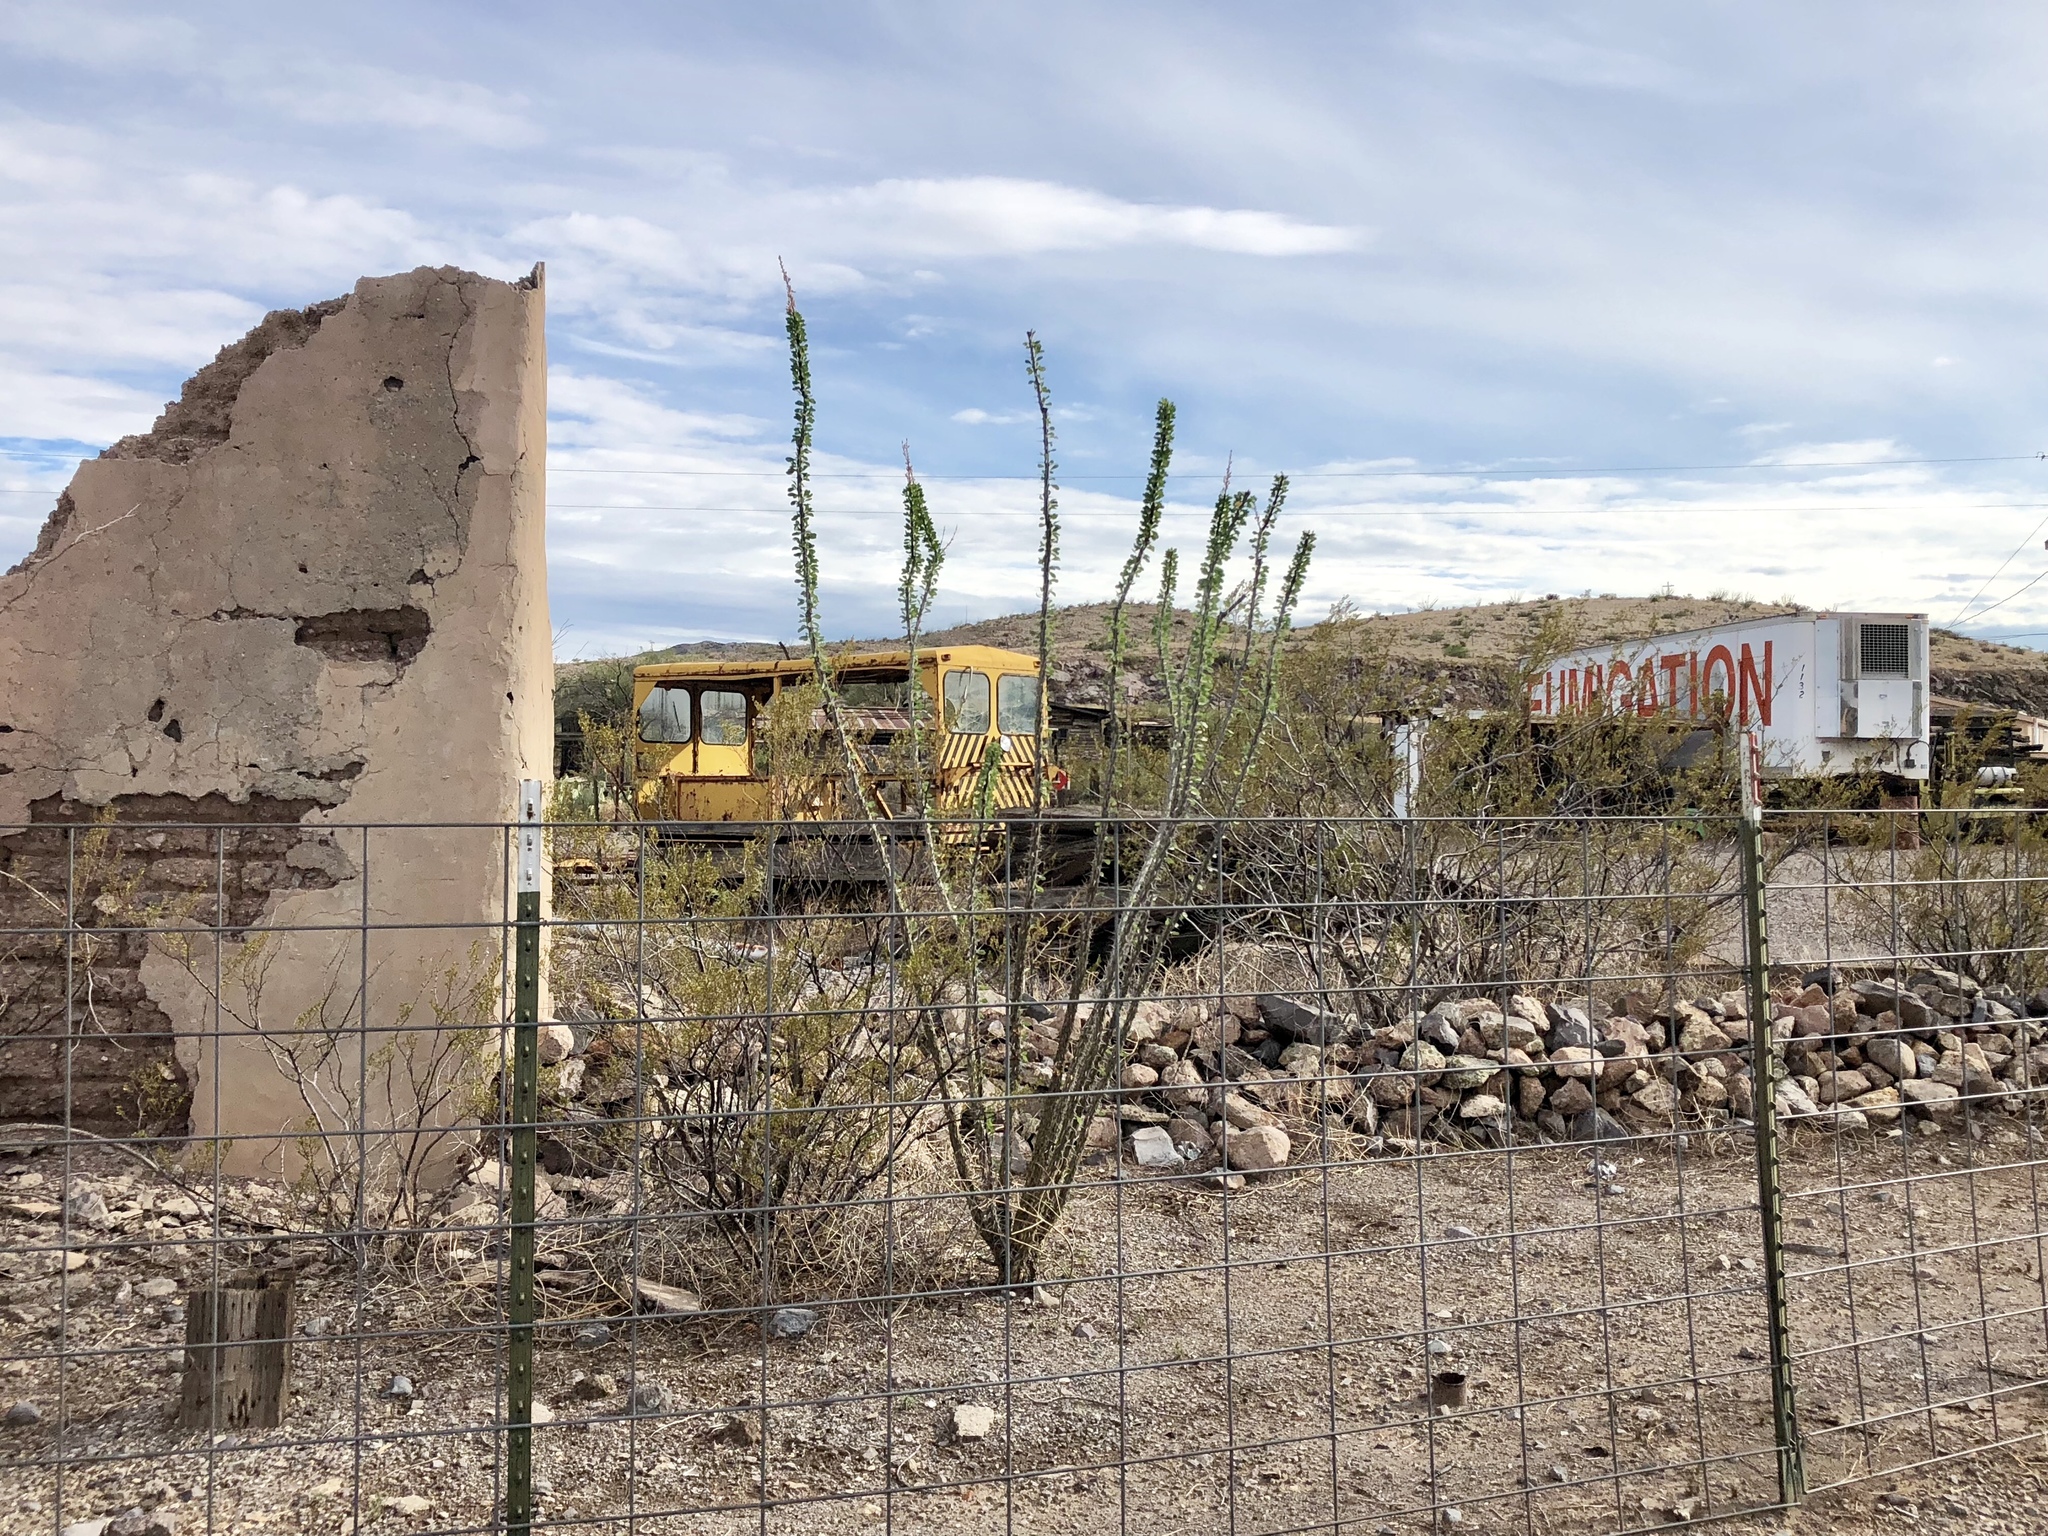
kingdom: Plantae
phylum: Tracheophyta
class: Magnoliopsida
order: Ericales
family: Fouquieriaceae
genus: Fouquieria
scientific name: Fouquieria splendens
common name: Vine-cactus
